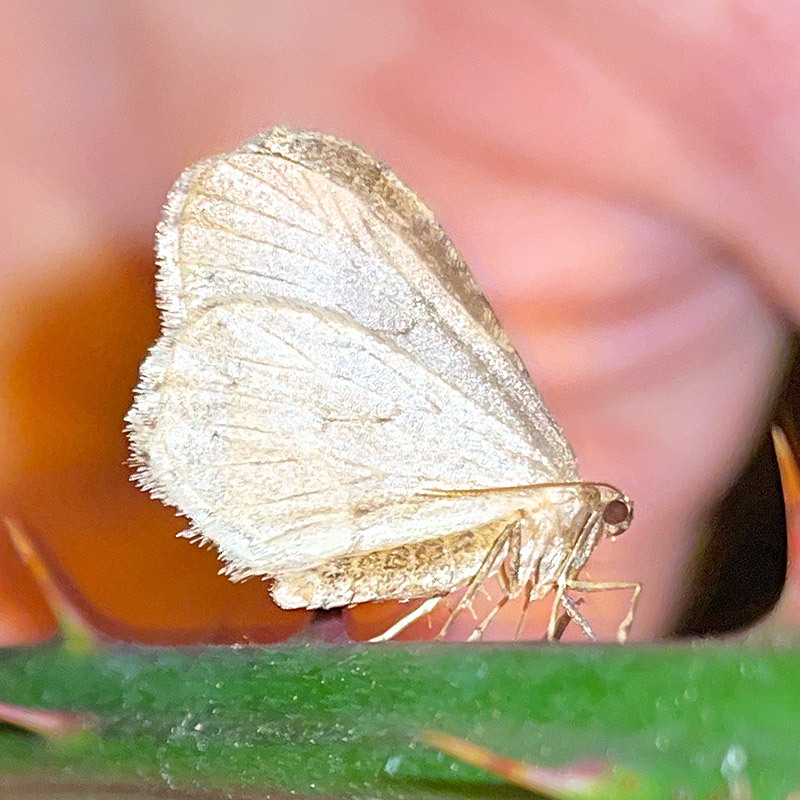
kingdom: Animalia
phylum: Arthropoda
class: Insecta
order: Lepidoptera
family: Geometridae
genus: Operophtera
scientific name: Operophtera brumata
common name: Winter moth
